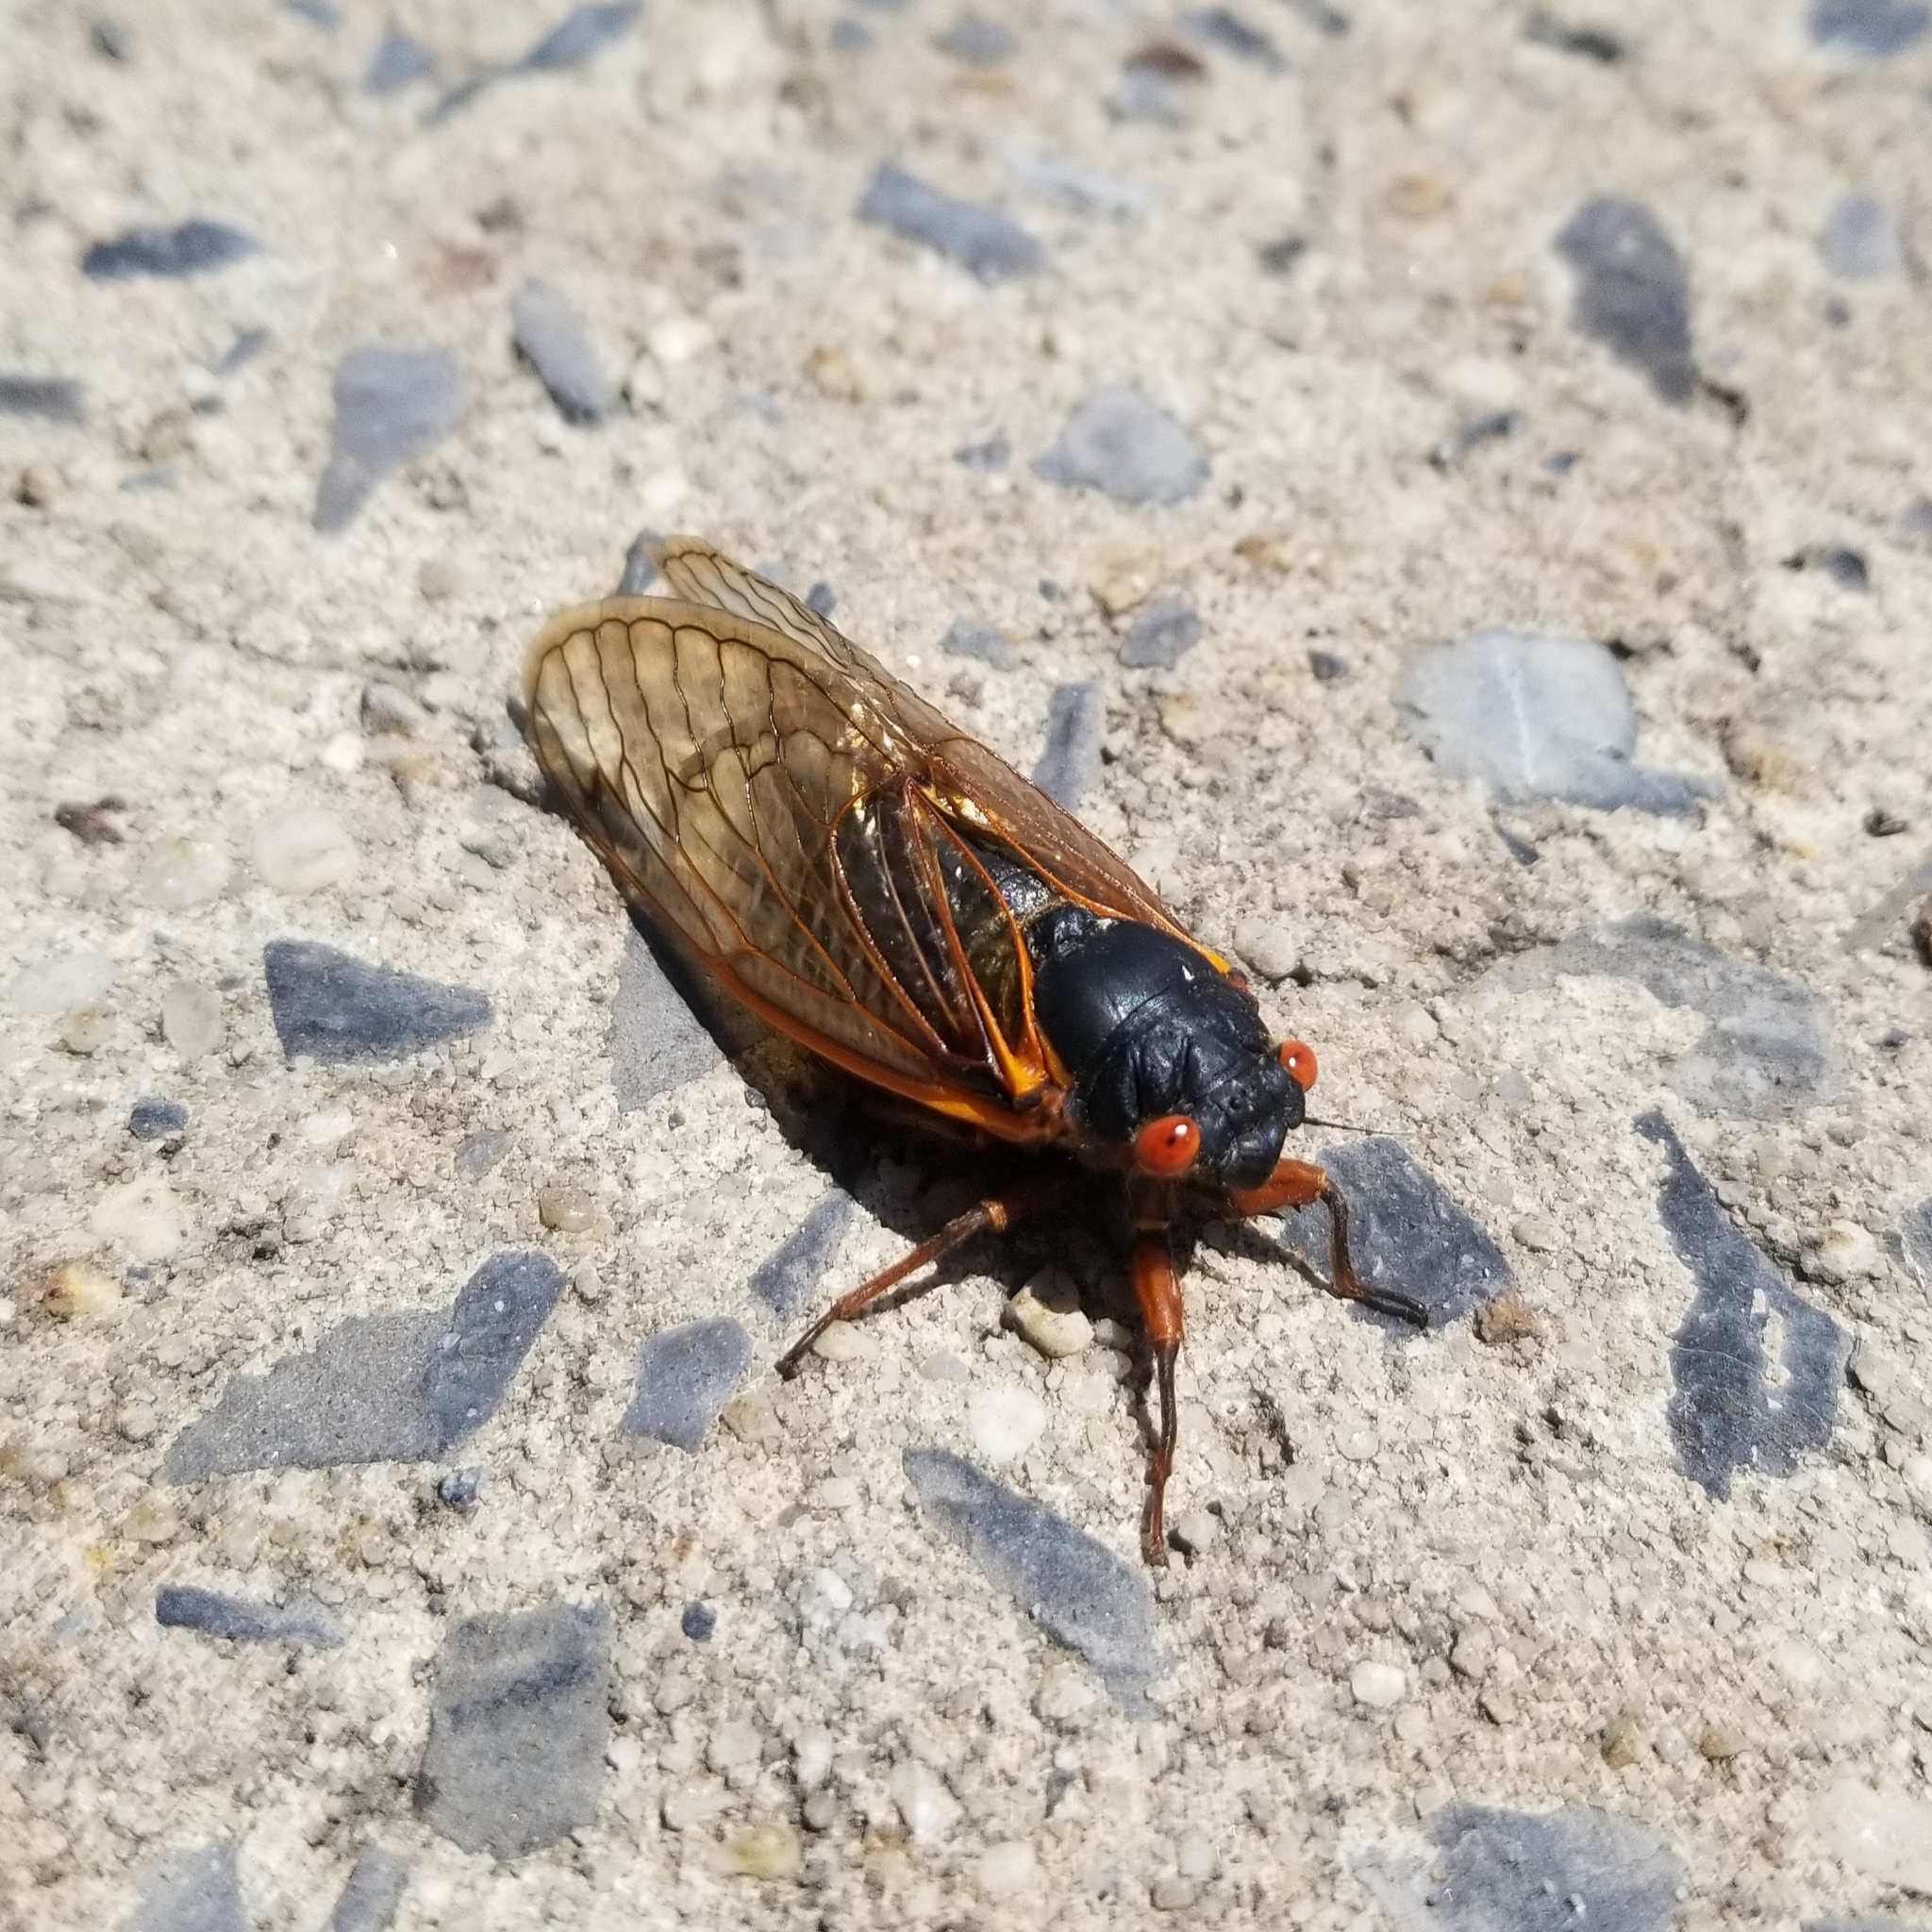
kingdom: Animalia
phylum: Arthropoda
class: Insecta
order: Hemiptera
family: Cicadidae
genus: Magicicada
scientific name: Magicicada septendecim
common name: Periodical cicada
